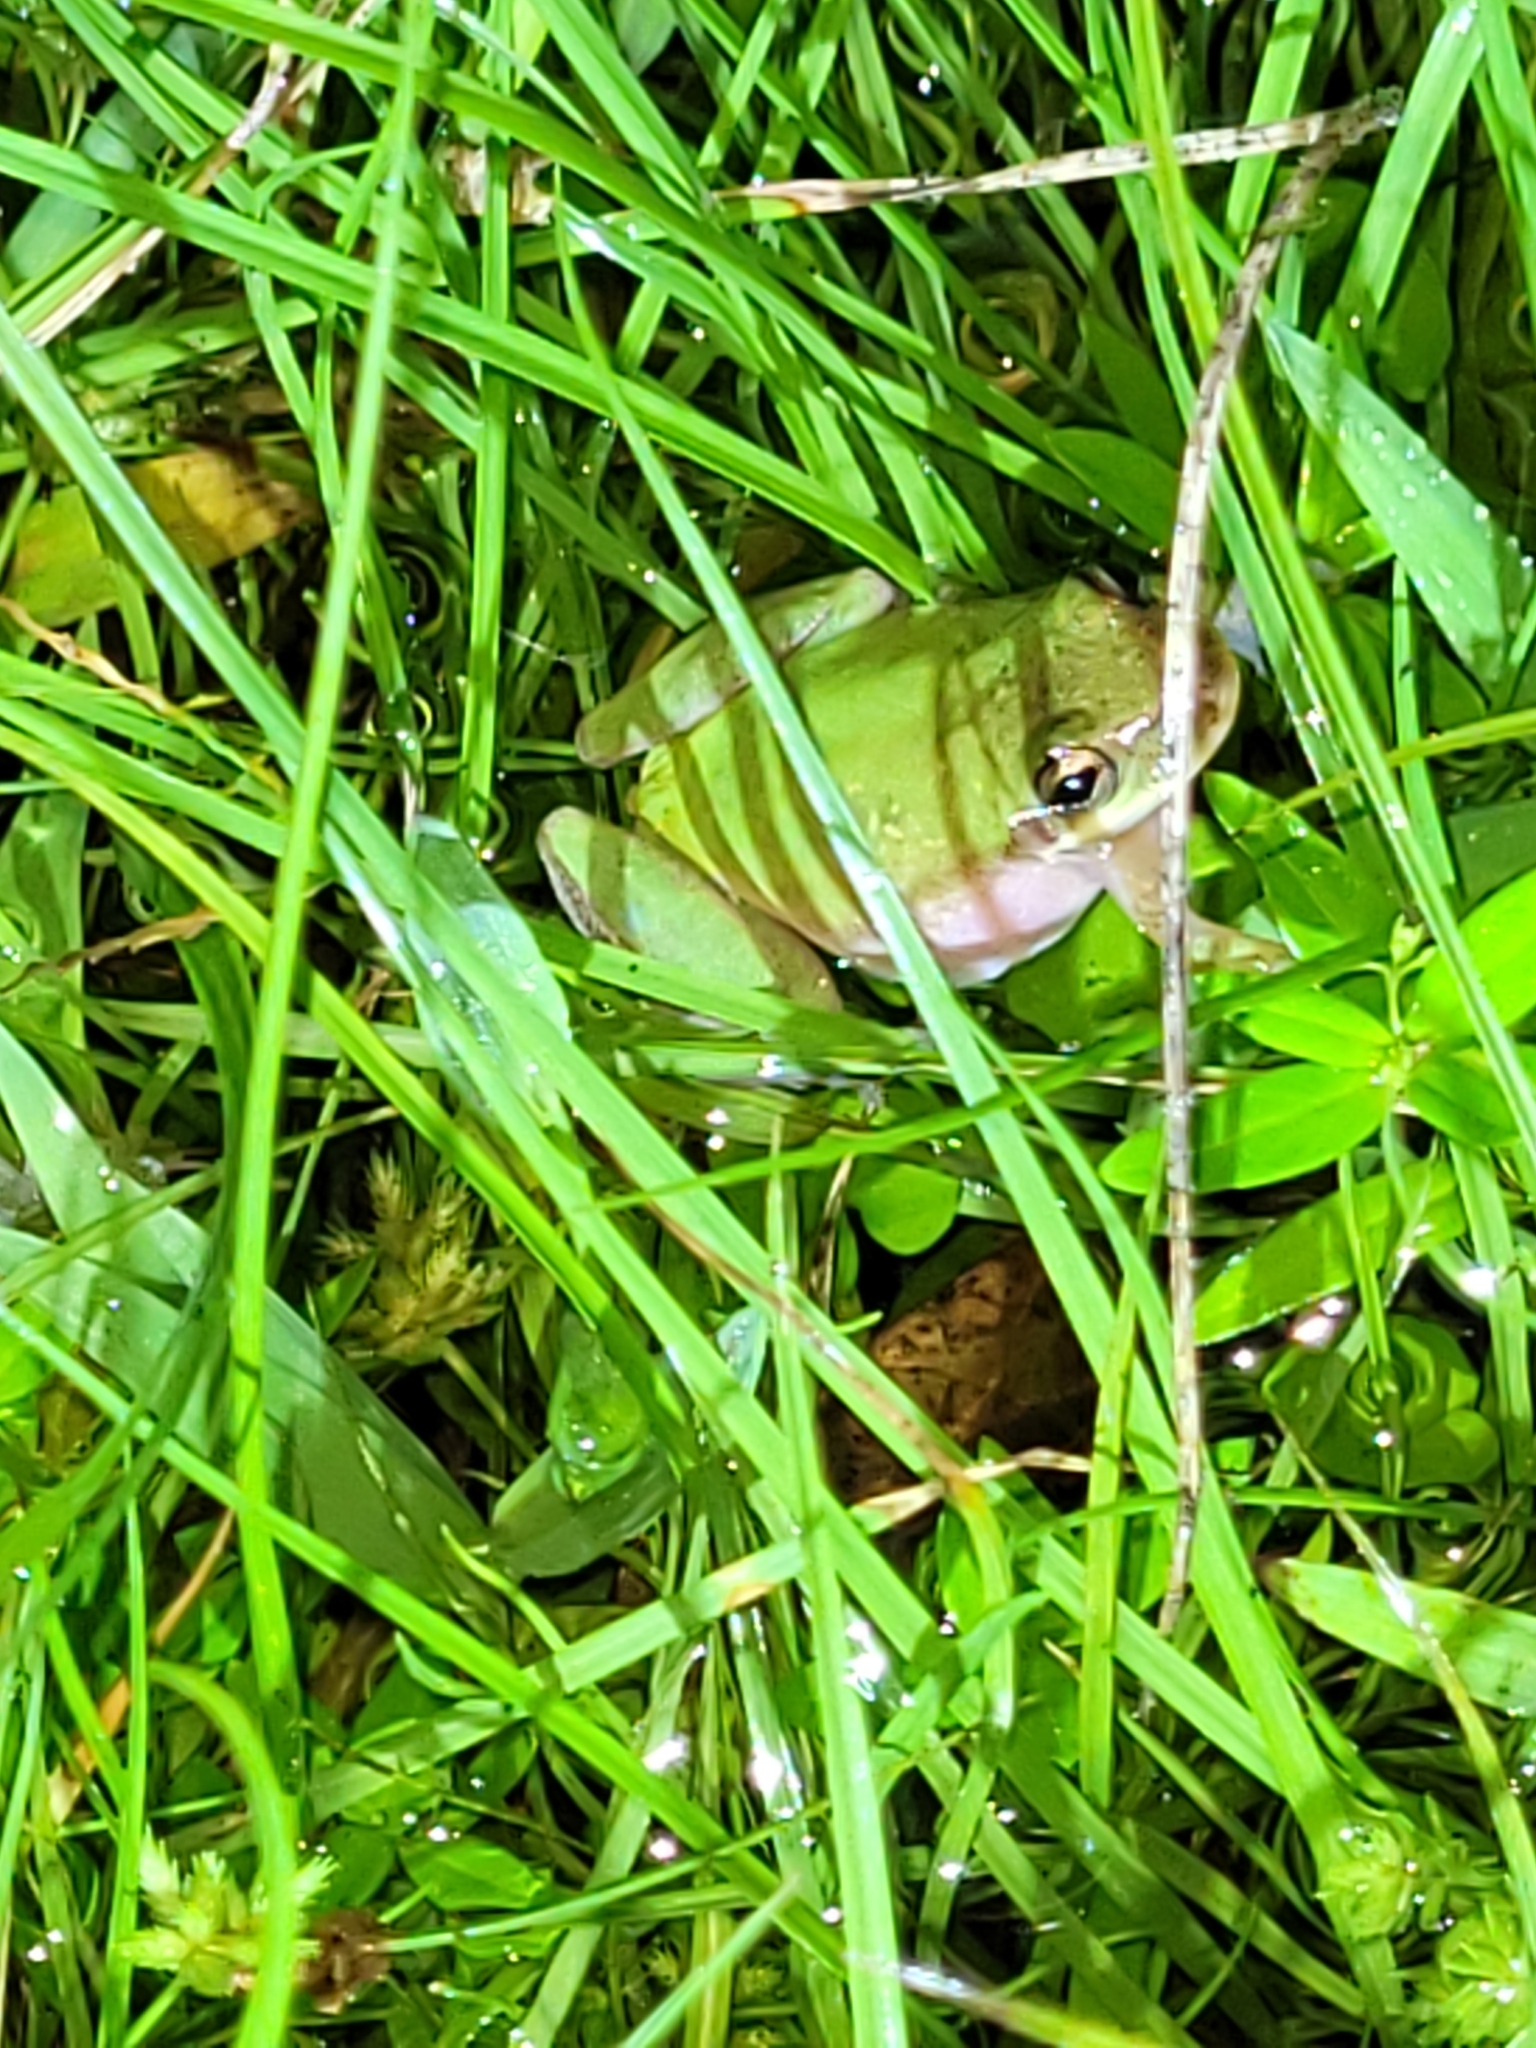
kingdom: Animalia
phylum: Chordata
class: Amphibia
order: Anura
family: Hylidae
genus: Dryophytes
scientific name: Dryophytes squirellus
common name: Squirrel treefrog
